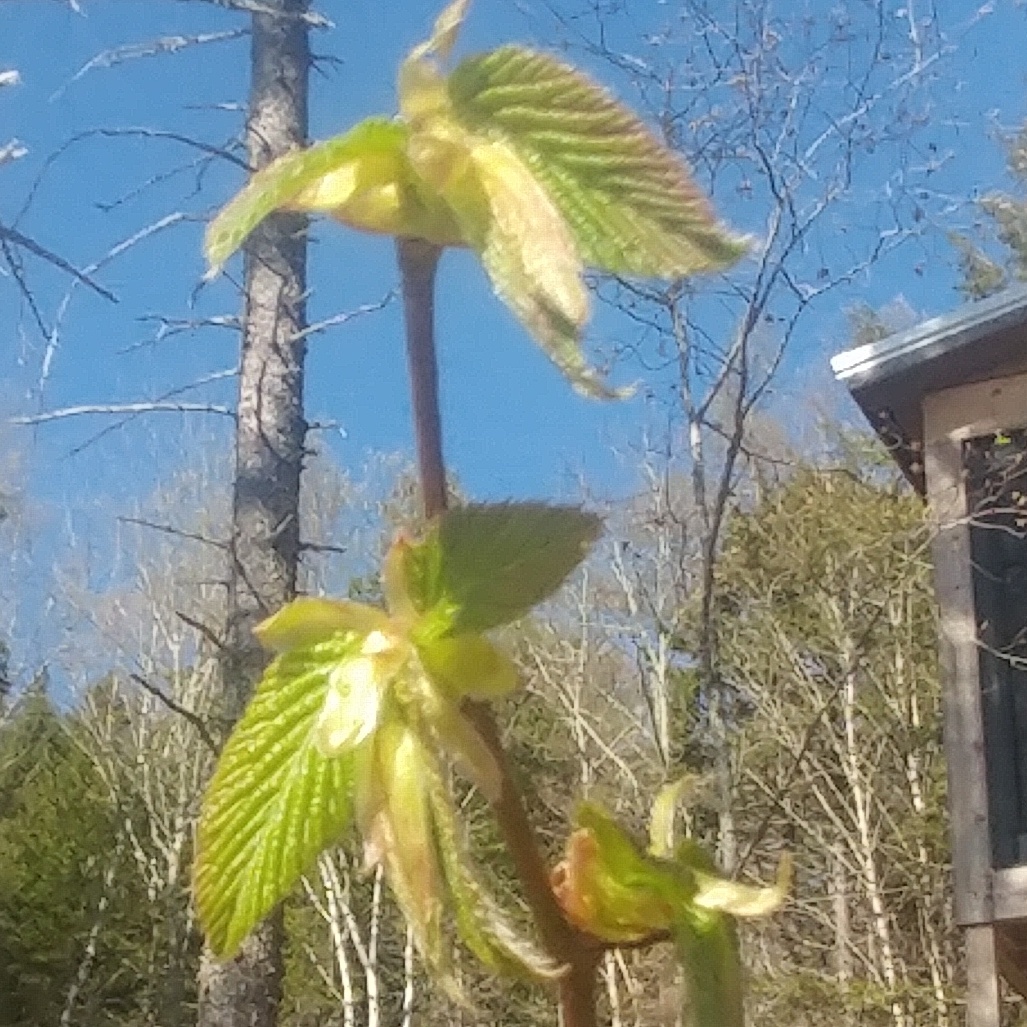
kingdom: Plantae
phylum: Tracheophyta
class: Magnoliopsida
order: Fagales
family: Betulaceae
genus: Ostrya
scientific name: Ostrya virginiana
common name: Ironwood
